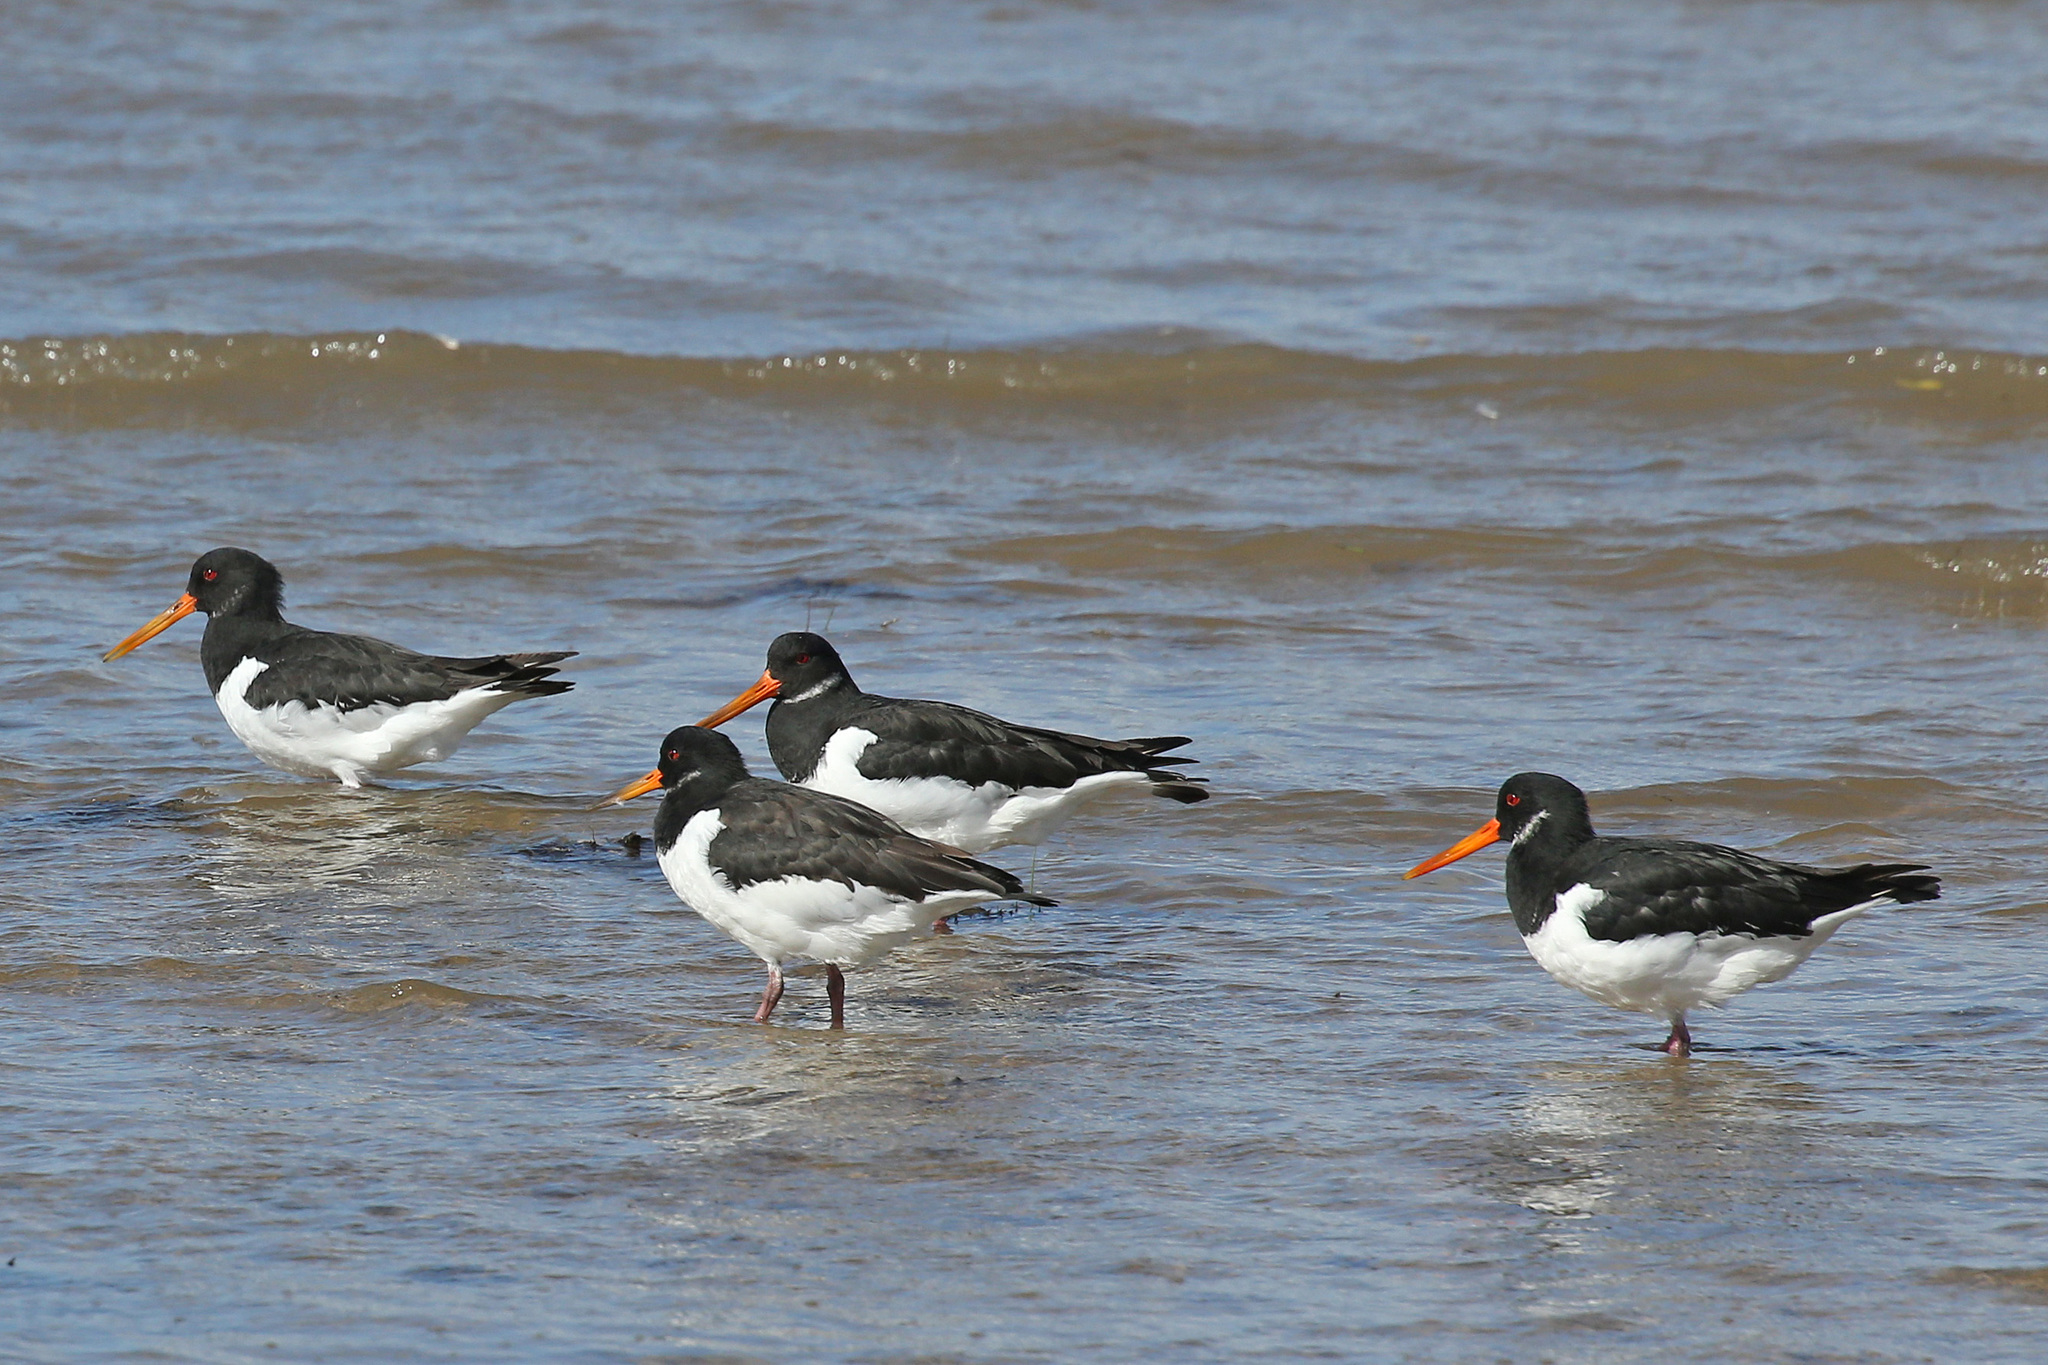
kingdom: Animalia
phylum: Chordata
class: Aves
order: Charadriiformes
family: Haematopodidae
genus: Haematopus
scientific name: Haematopus ostralegus
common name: Eurasian oystercatcher
